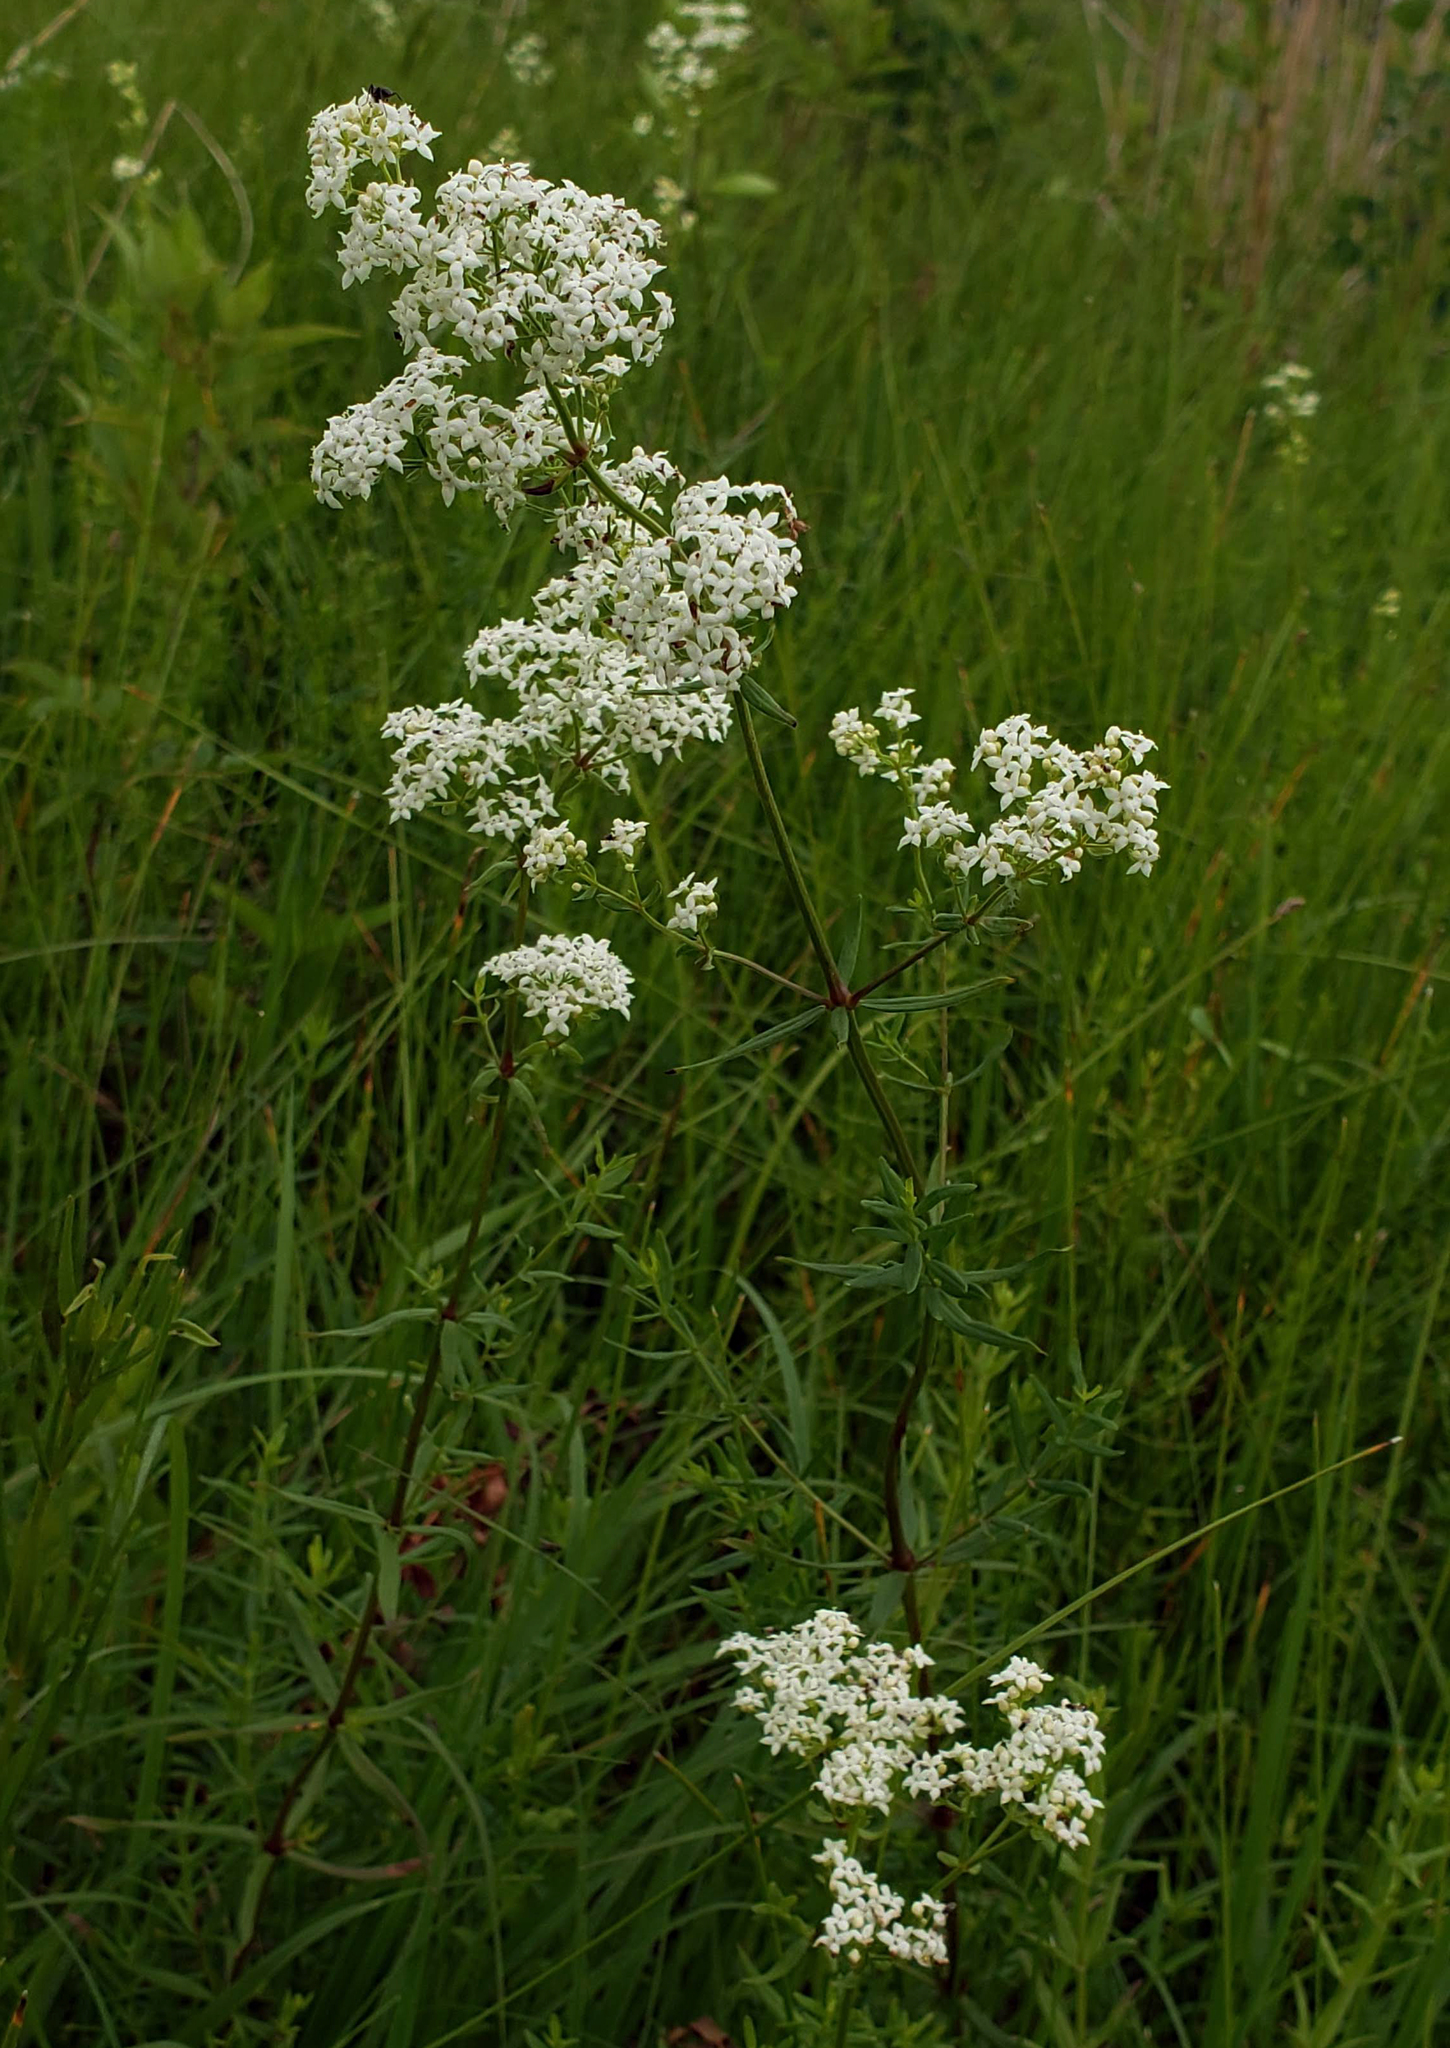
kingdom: Plantae
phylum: Tracheophyta
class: Magnoliopsida
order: Gentianales
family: Rubiaceae
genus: Galium
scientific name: Galium boreale
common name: Northern bedstraw
